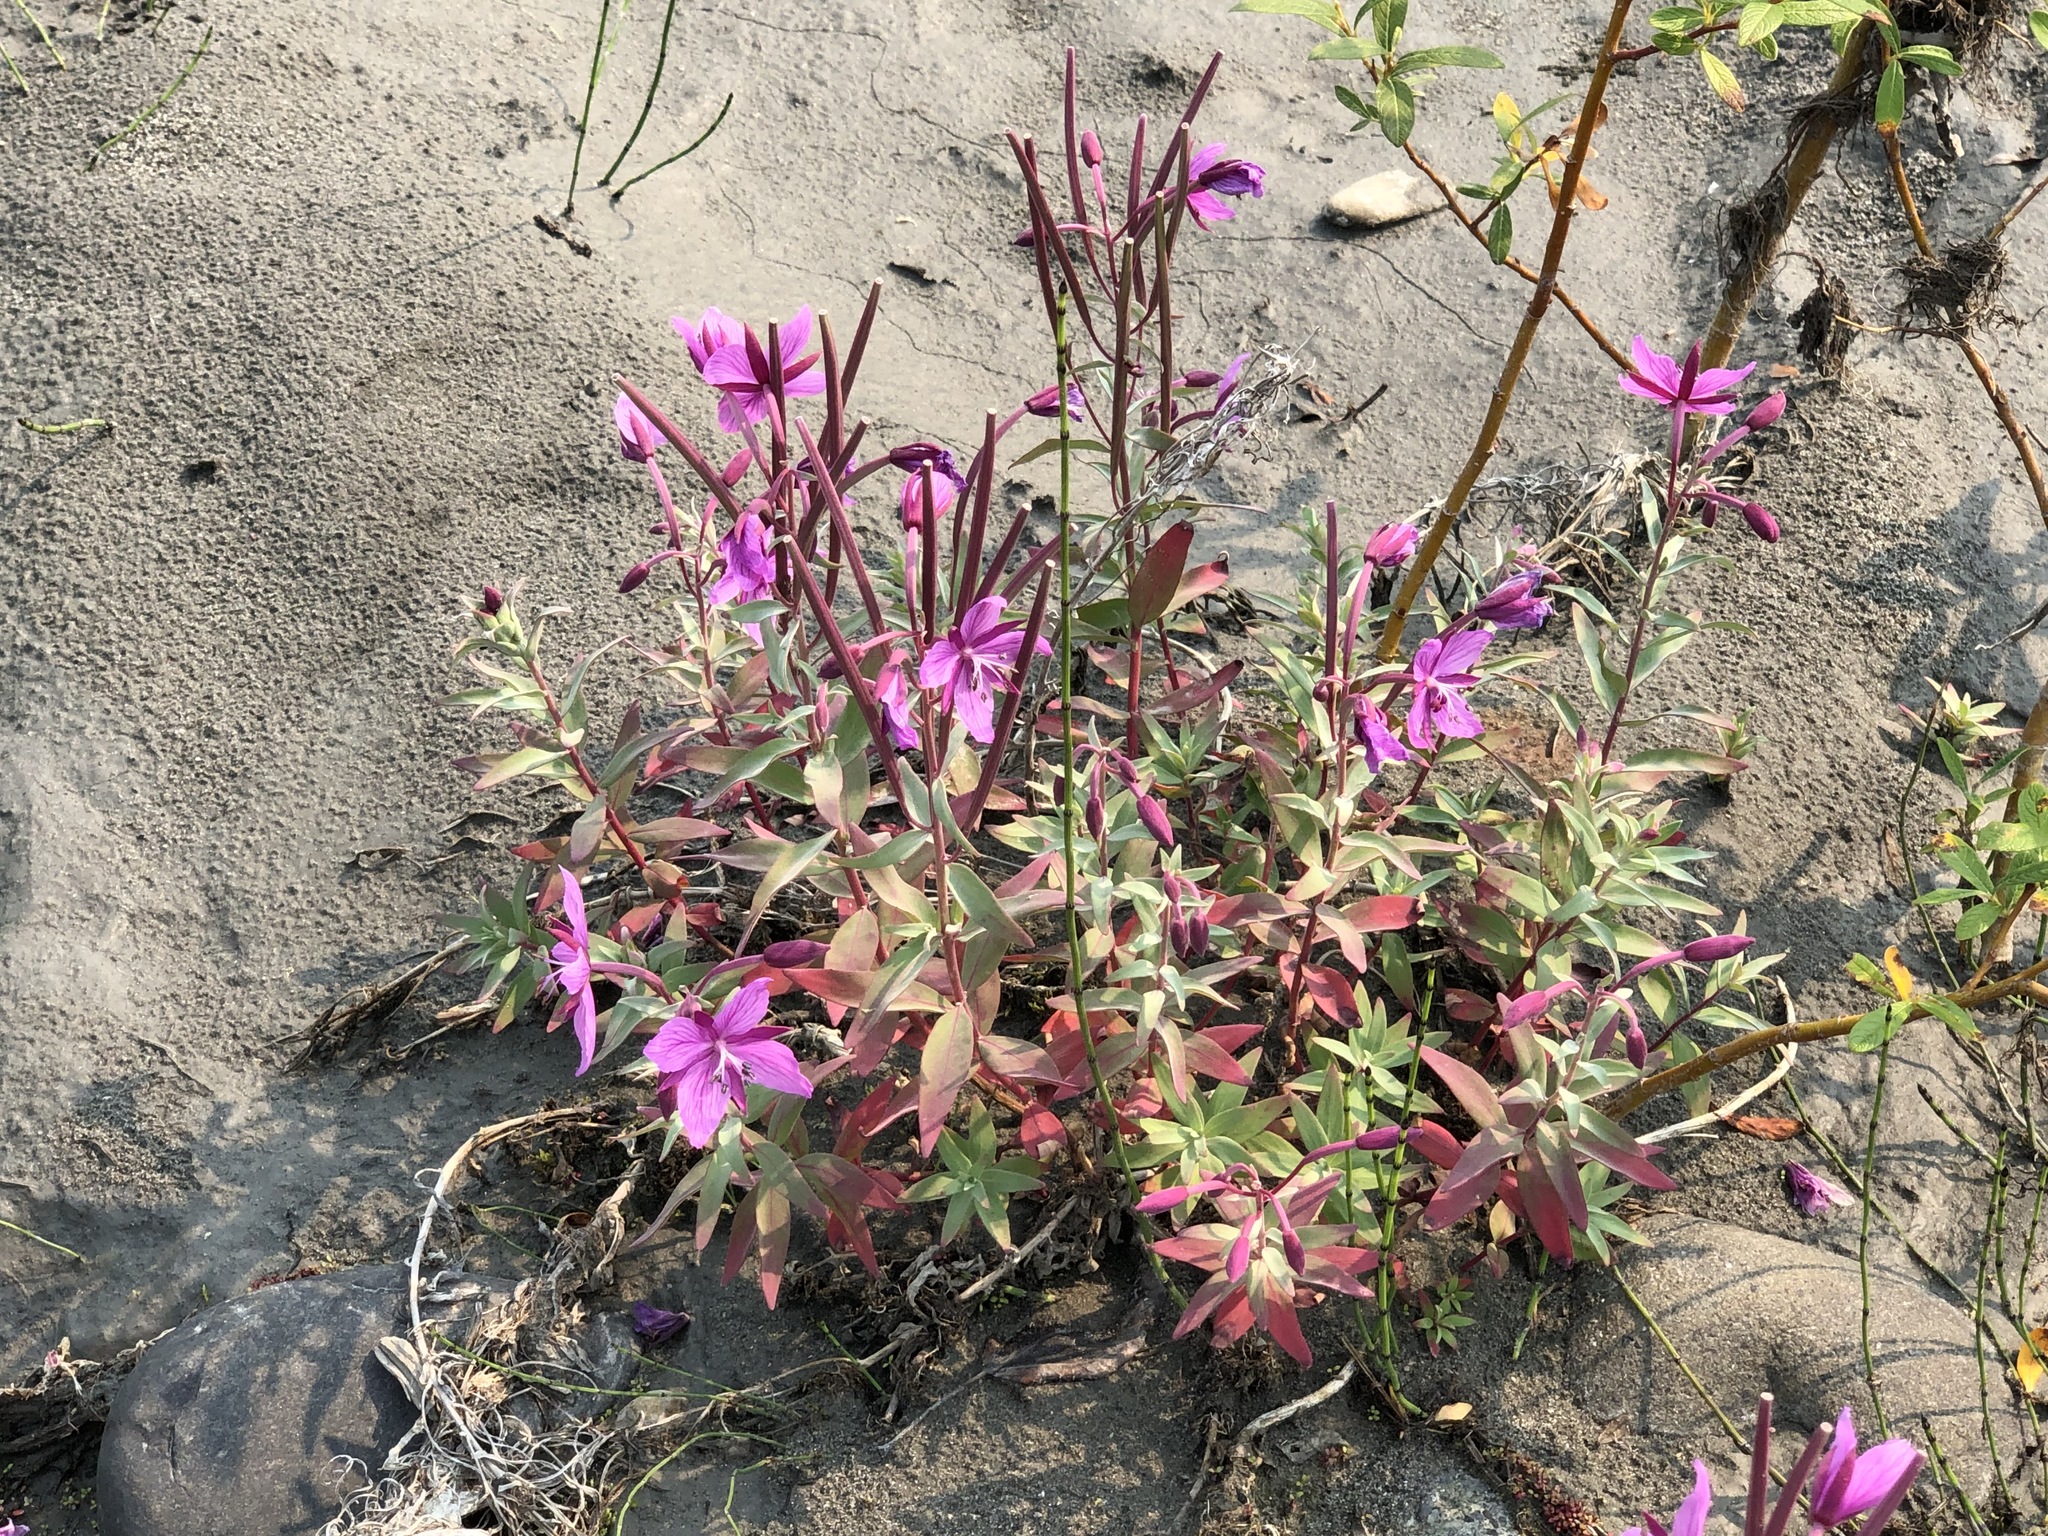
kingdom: Plantae
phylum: Tracheophyta
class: Magnoliopsida
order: Myrtales
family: Onagraceae
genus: Chamaenerion
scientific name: Chamaenerion latifolium
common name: Dwarf fireweed
